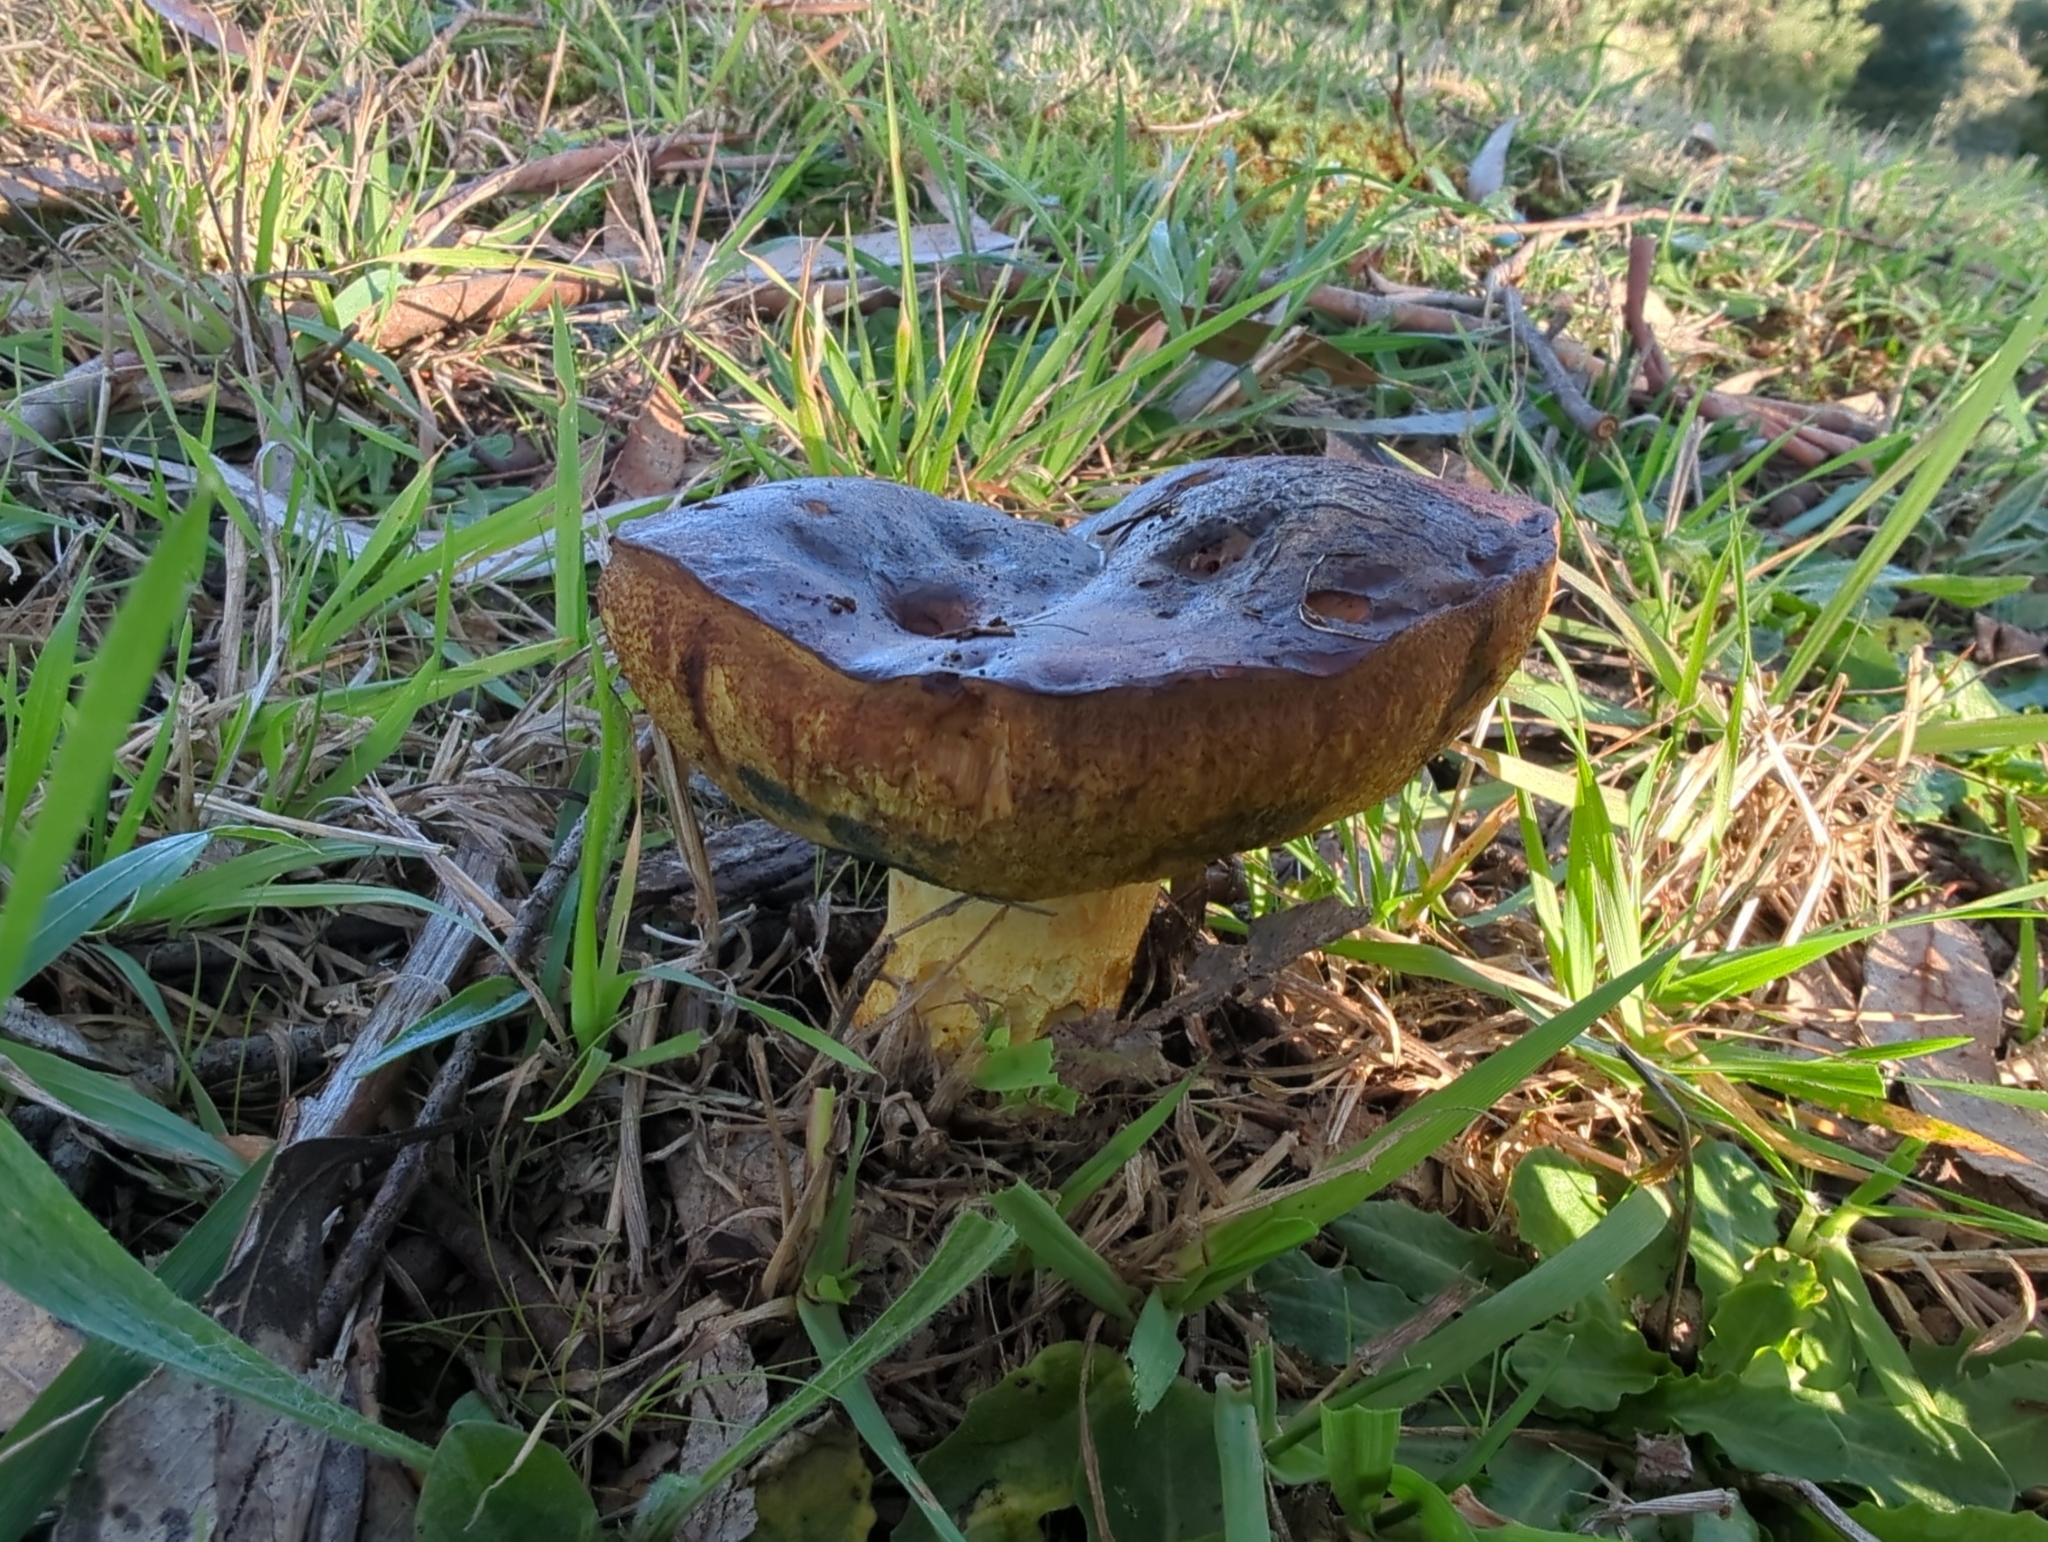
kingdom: Fungi
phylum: Basidiomycota
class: Agaricomycetes
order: Boletales
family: Boletinellaceae
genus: Phlebopus
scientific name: Phlebopus marginatus
